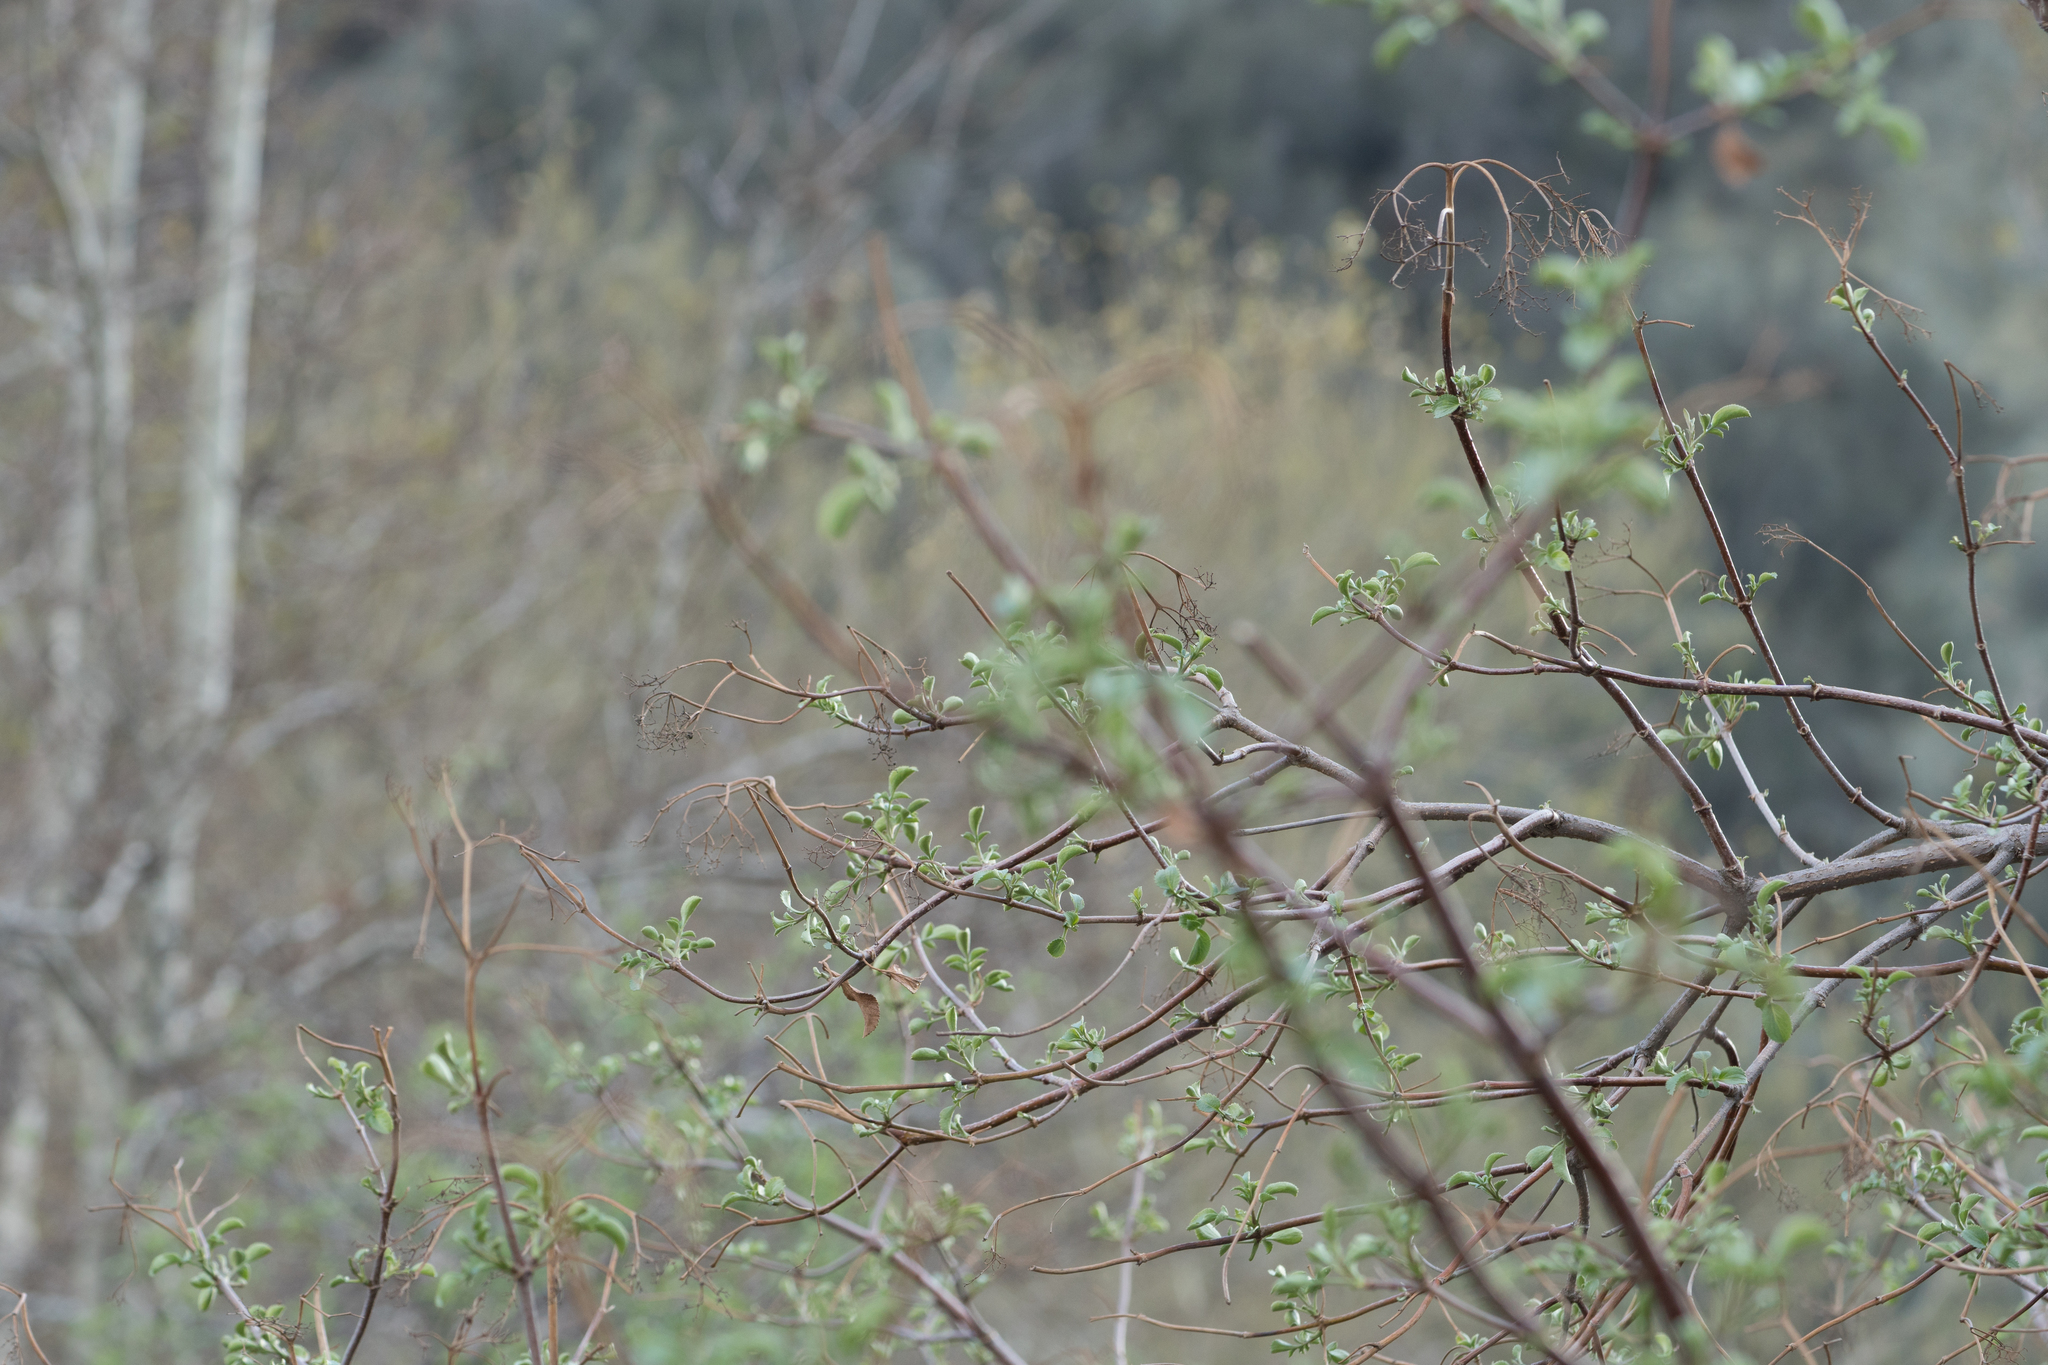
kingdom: Plantae
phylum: Tracheophyta
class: Magnoliopsida
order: Dipsacales
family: Viburnaceae
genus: Sambucus
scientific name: Sambucus cerulea
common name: Blue elder
